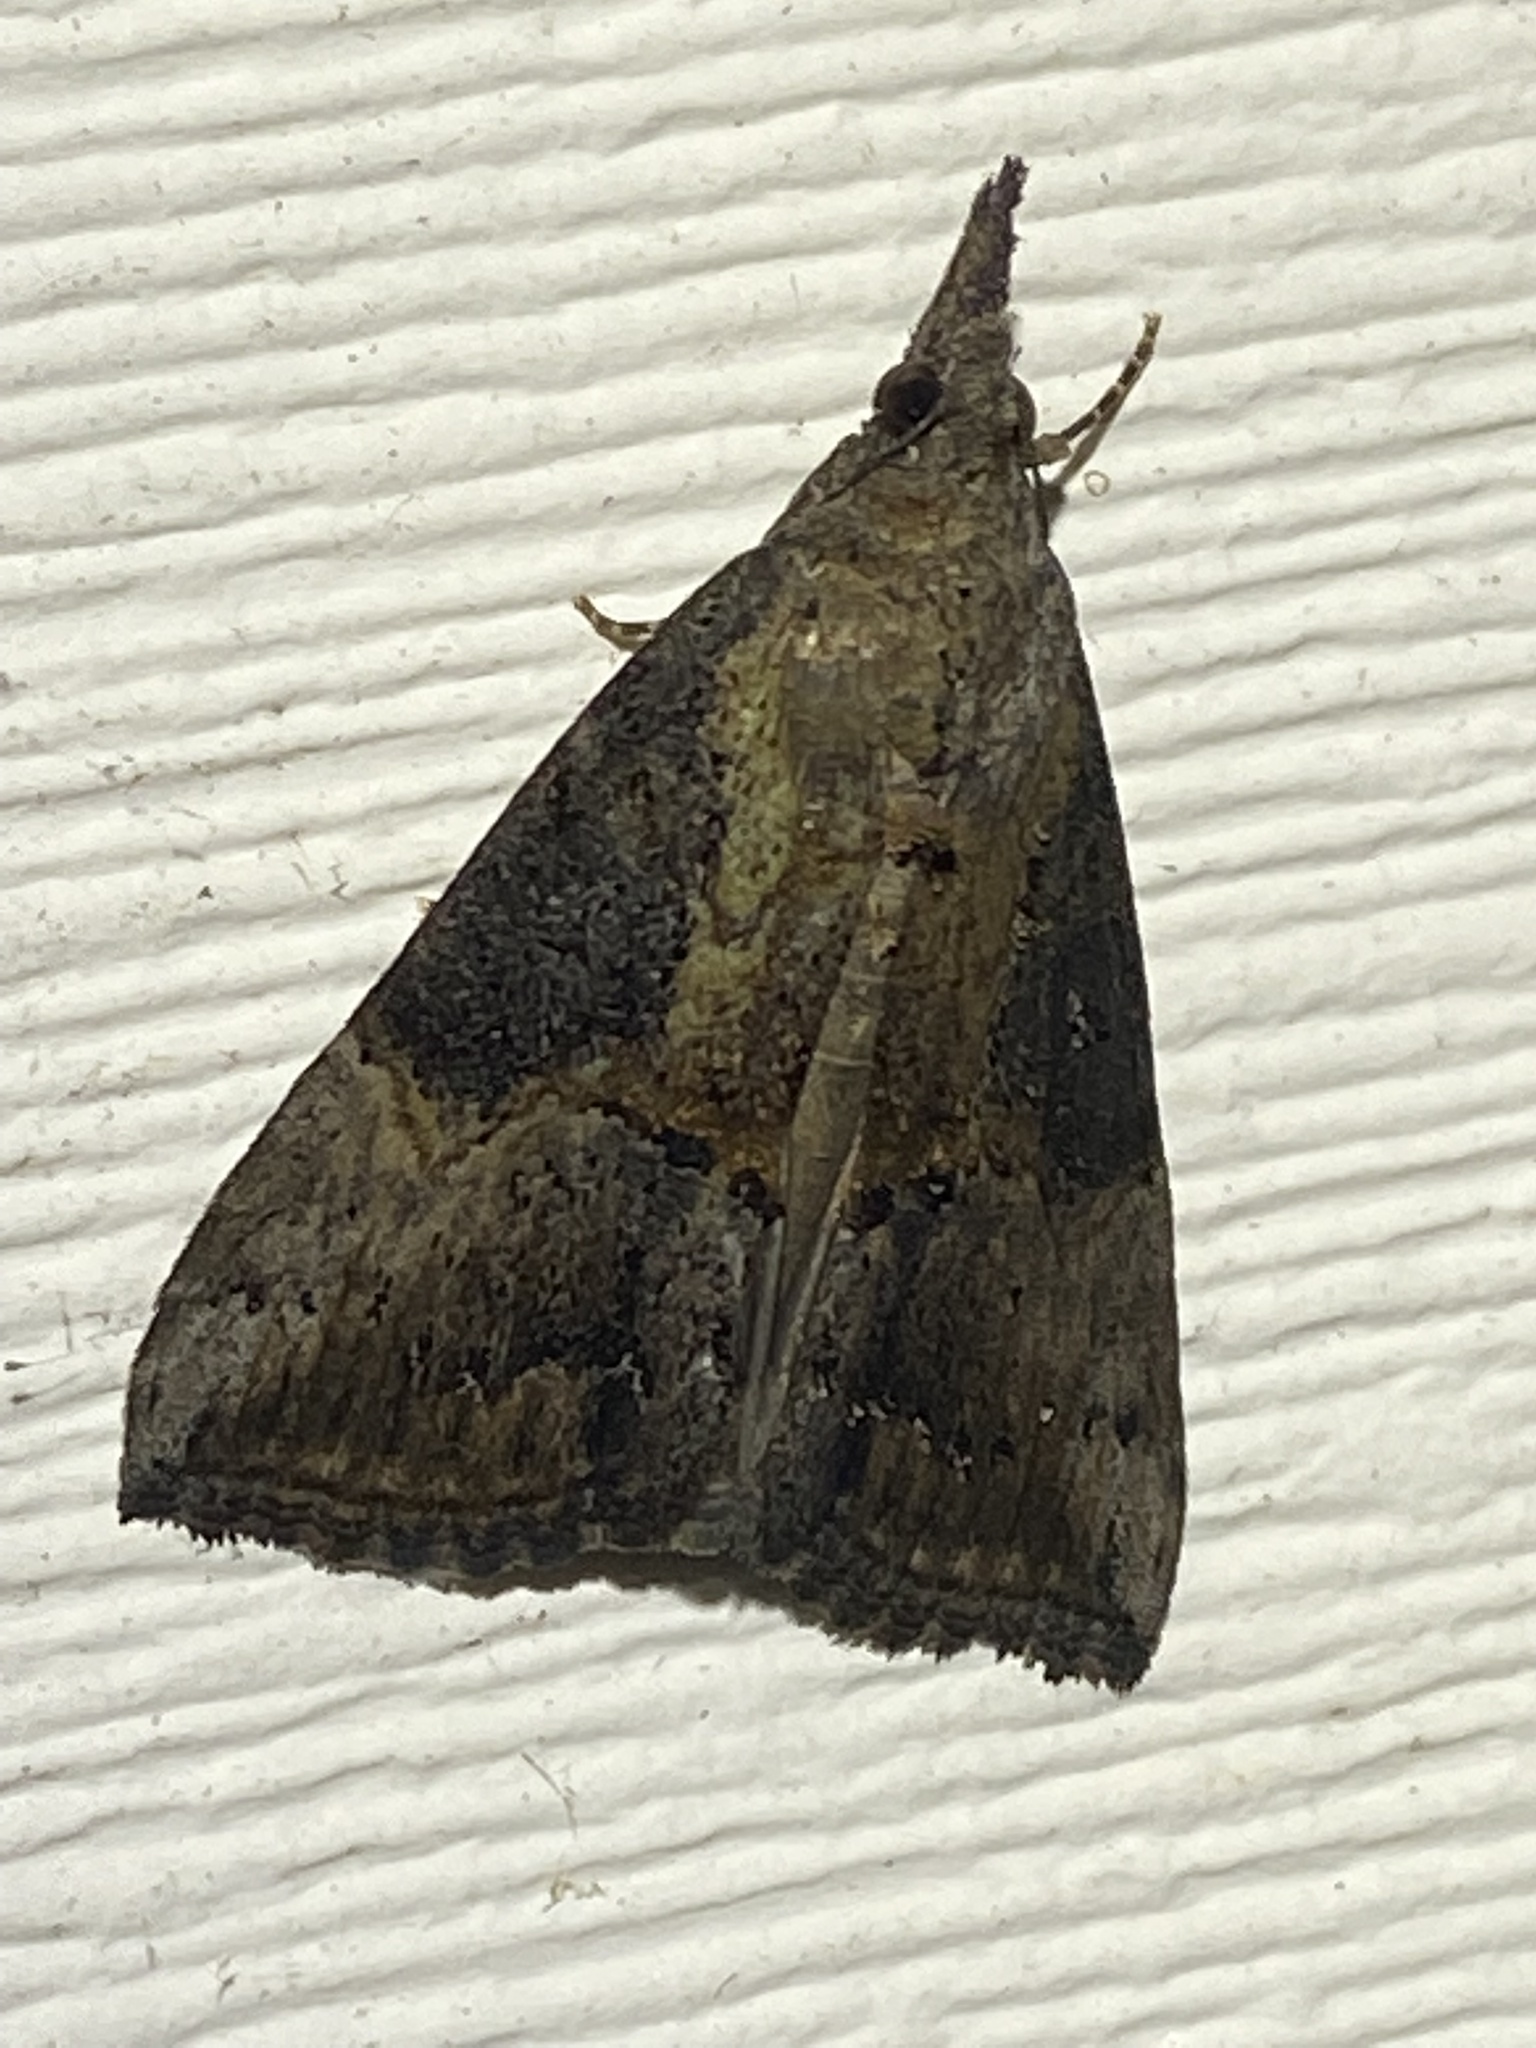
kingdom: Animalia
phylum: Arthropoda
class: Insecta
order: Lepidoptera
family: Erebidae
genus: Hypena
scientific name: Hypena scabra
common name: Green cloverworm
